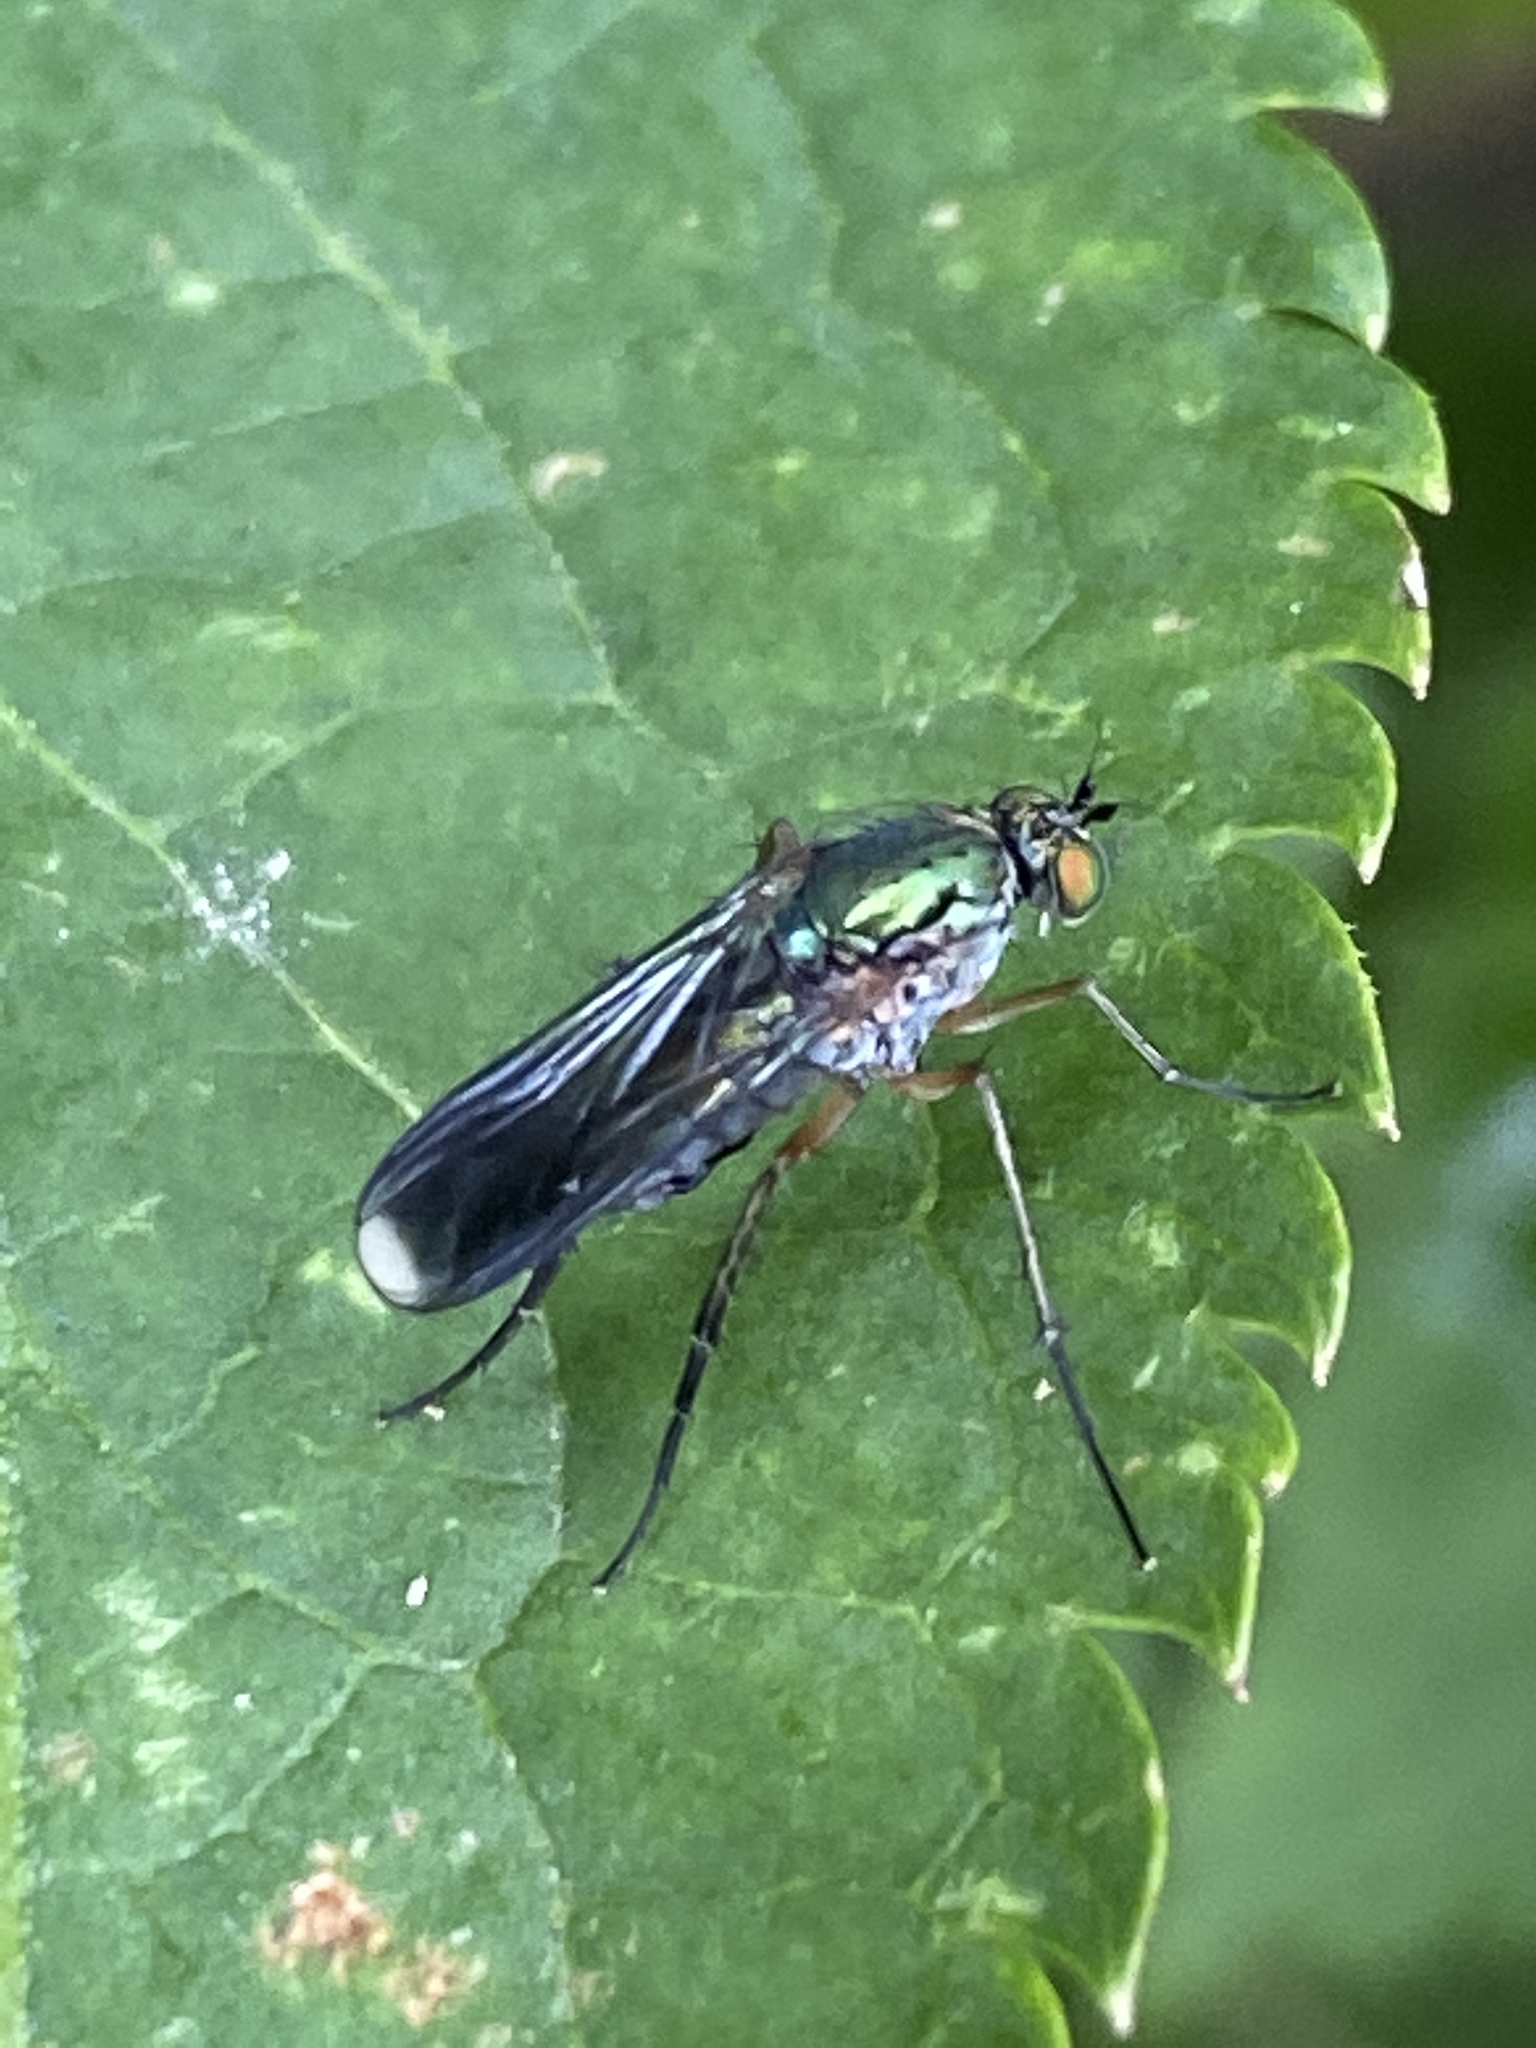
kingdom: Animalia
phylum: Arthropoda
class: Insecta
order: Diptera
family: Dolichopodidae
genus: Poecilobothrus
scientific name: Poecilobothrus nobilitatus
